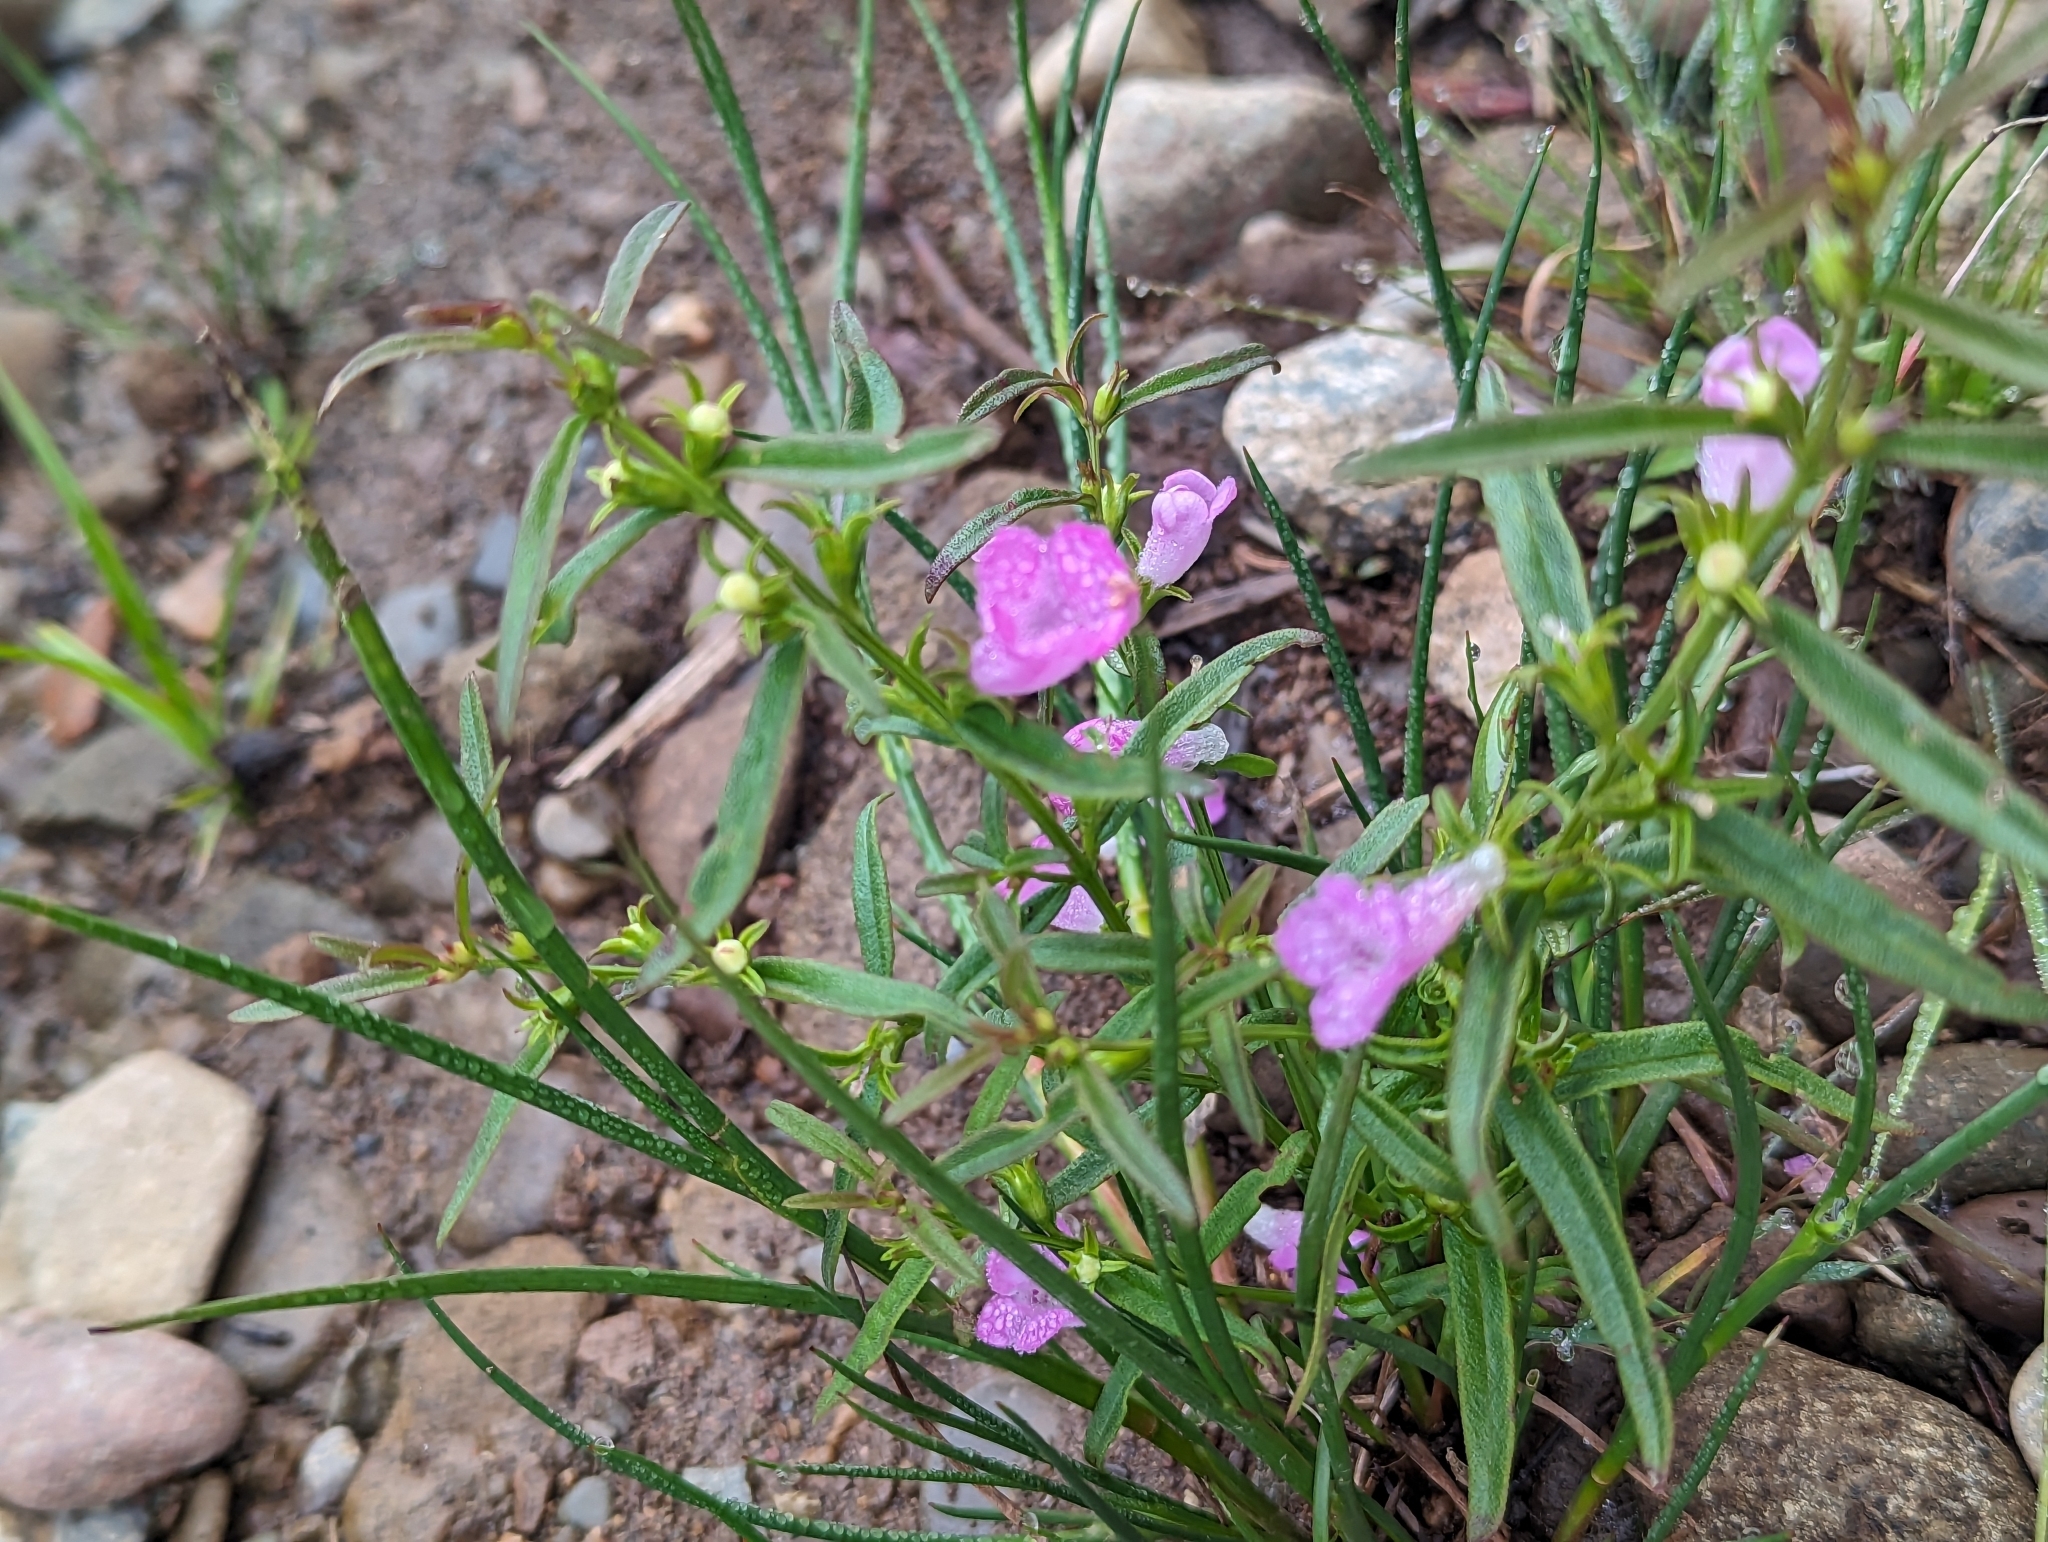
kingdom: Plantae
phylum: Tracheophyta
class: Magnoliopsida
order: Lamiales
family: Orobanchaceae
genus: Agalinis
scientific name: Agalinis neoscotica
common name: Middleton false foxglove
